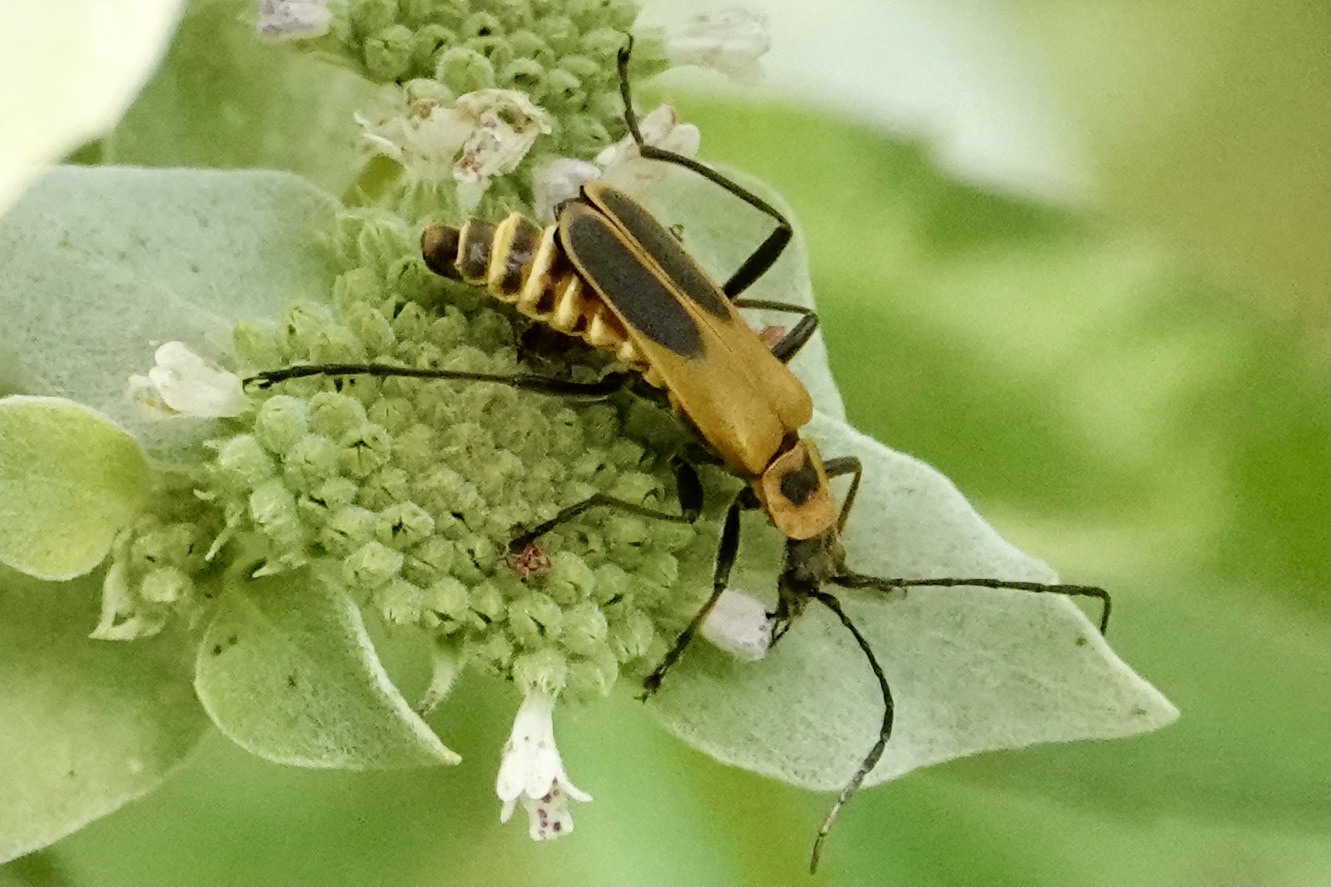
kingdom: Animalia
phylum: Arthropoda
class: Insecta
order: Coleoptera
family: Cantharidae
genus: Chauliognathus
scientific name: Chauliognathus pensylvanicus
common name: Goldenrod soldier beetle
